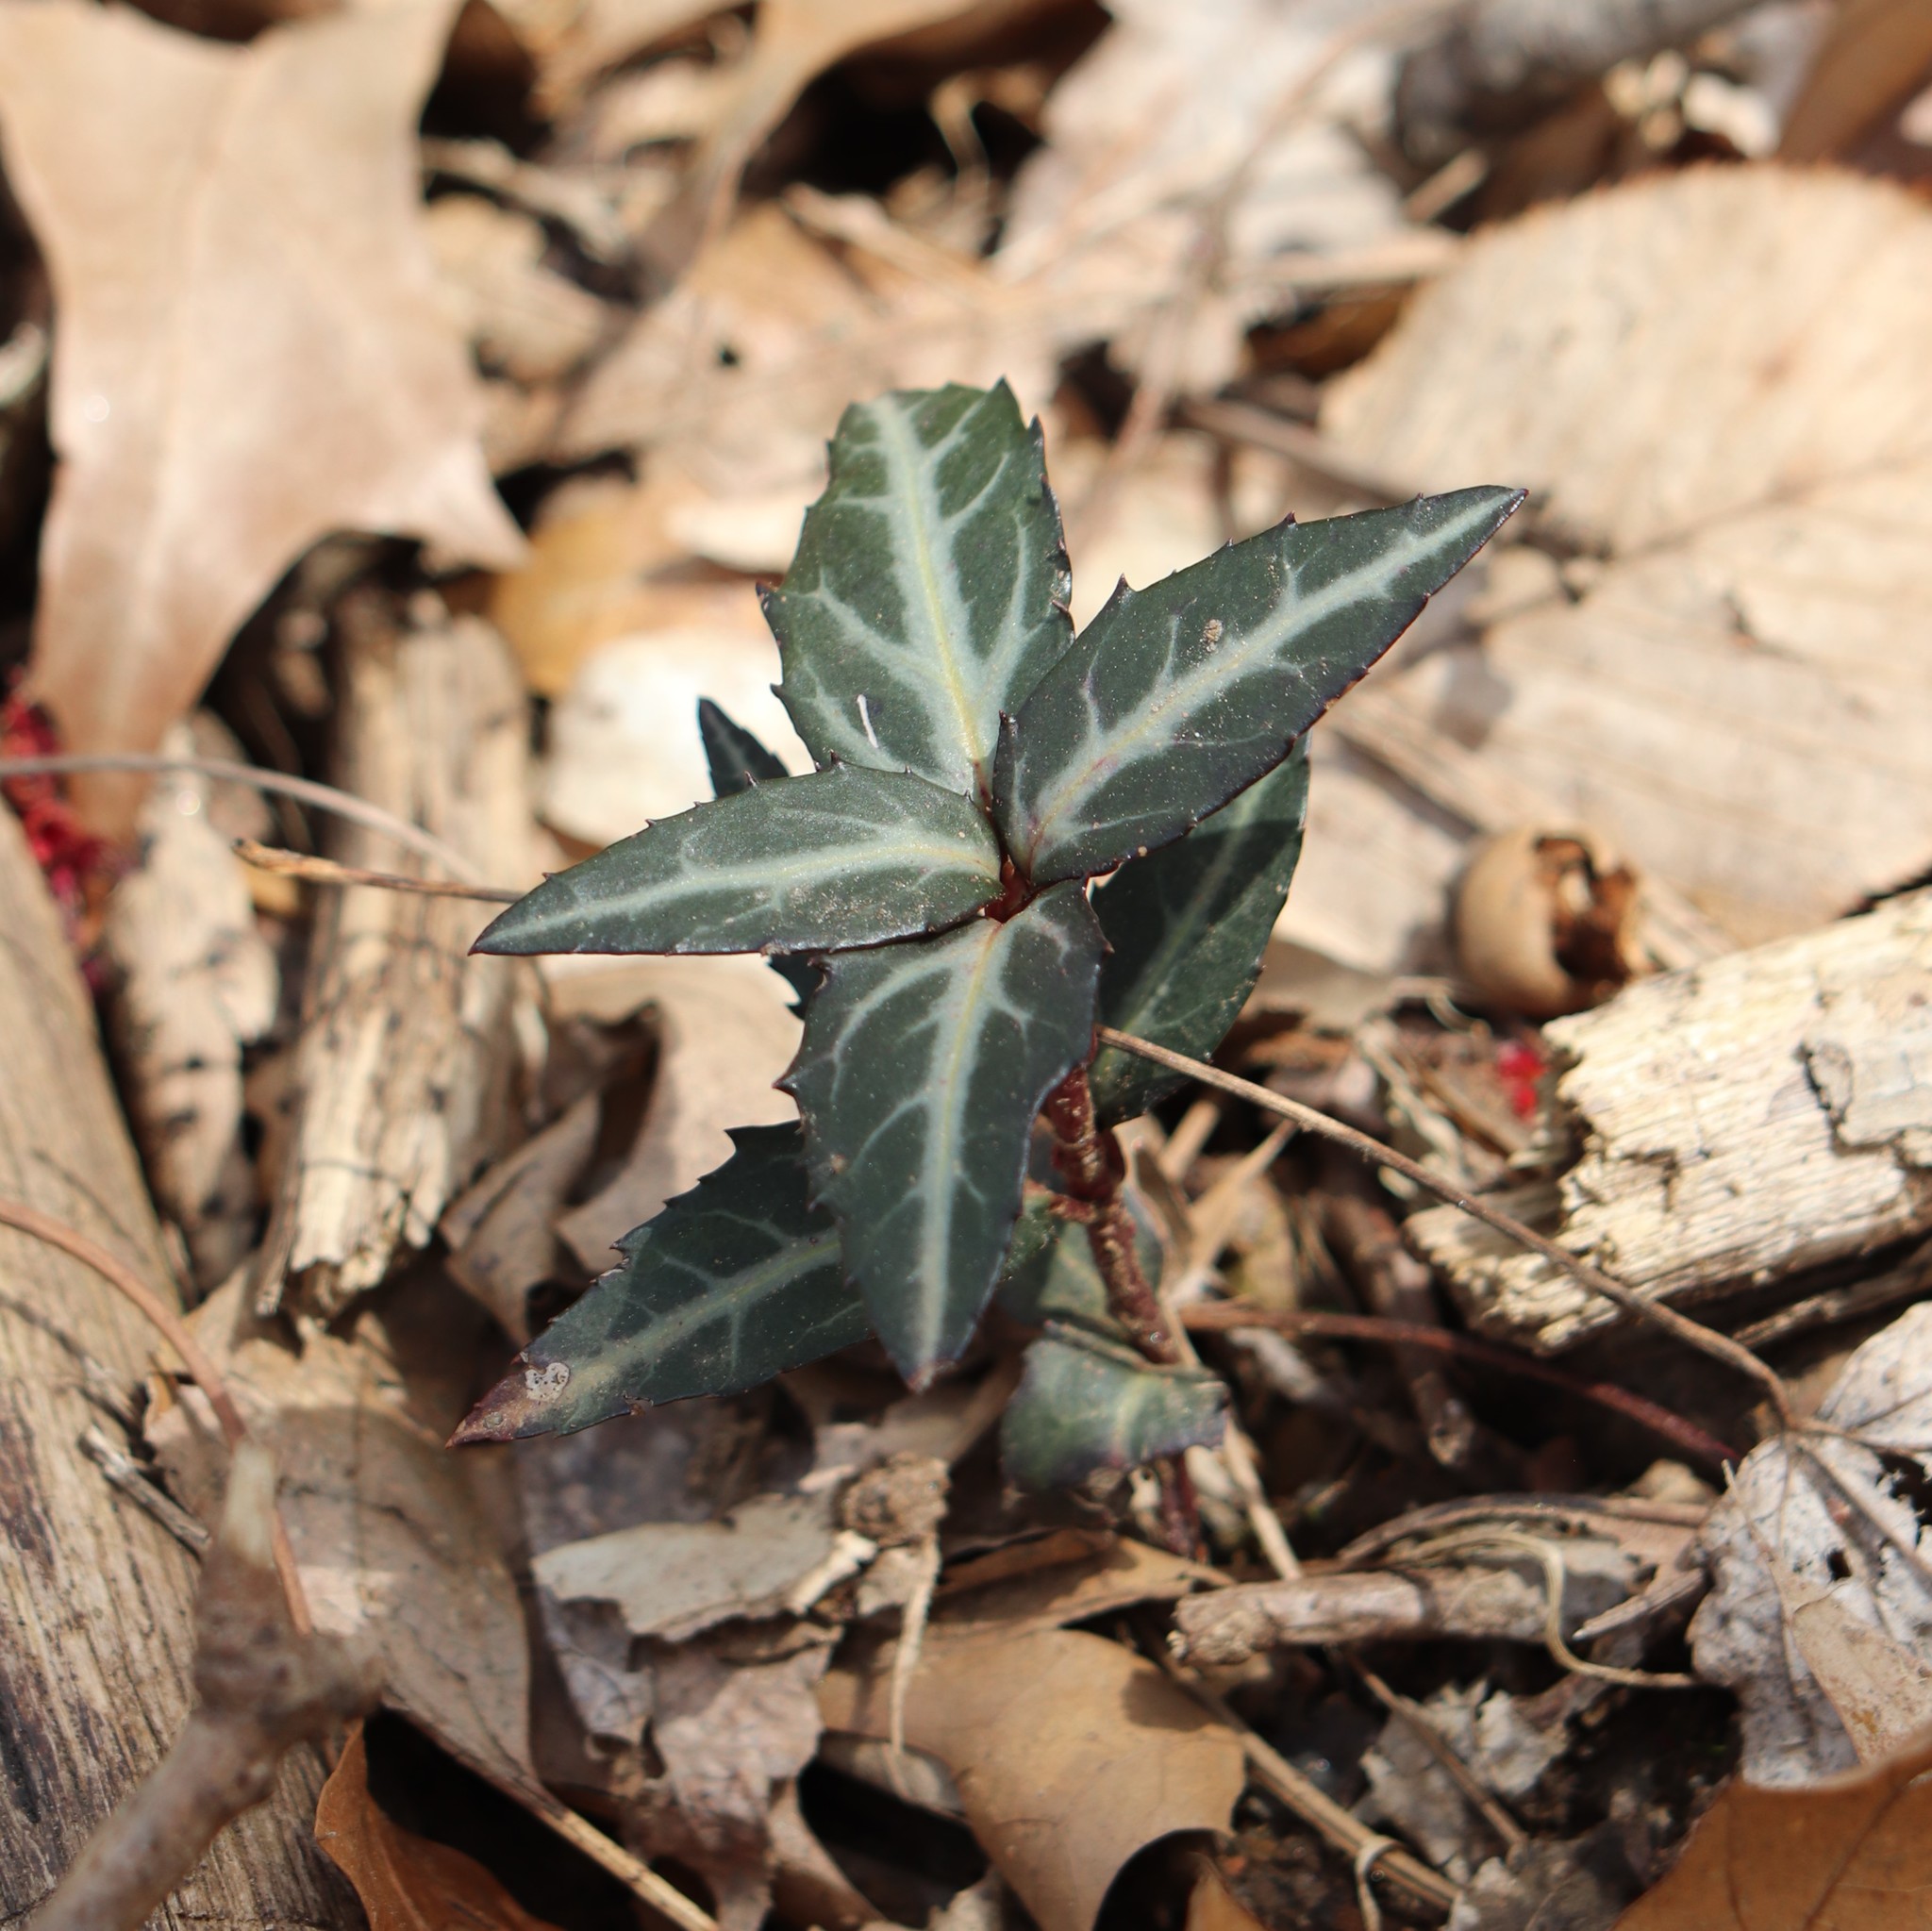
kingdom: Plantae
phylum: Tracheophyta
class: Magnoliopsida
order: Ericales
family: Ericaceae
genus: Chimaphila
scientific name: Chimaphila maculata
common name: Spotted pipsissewa
